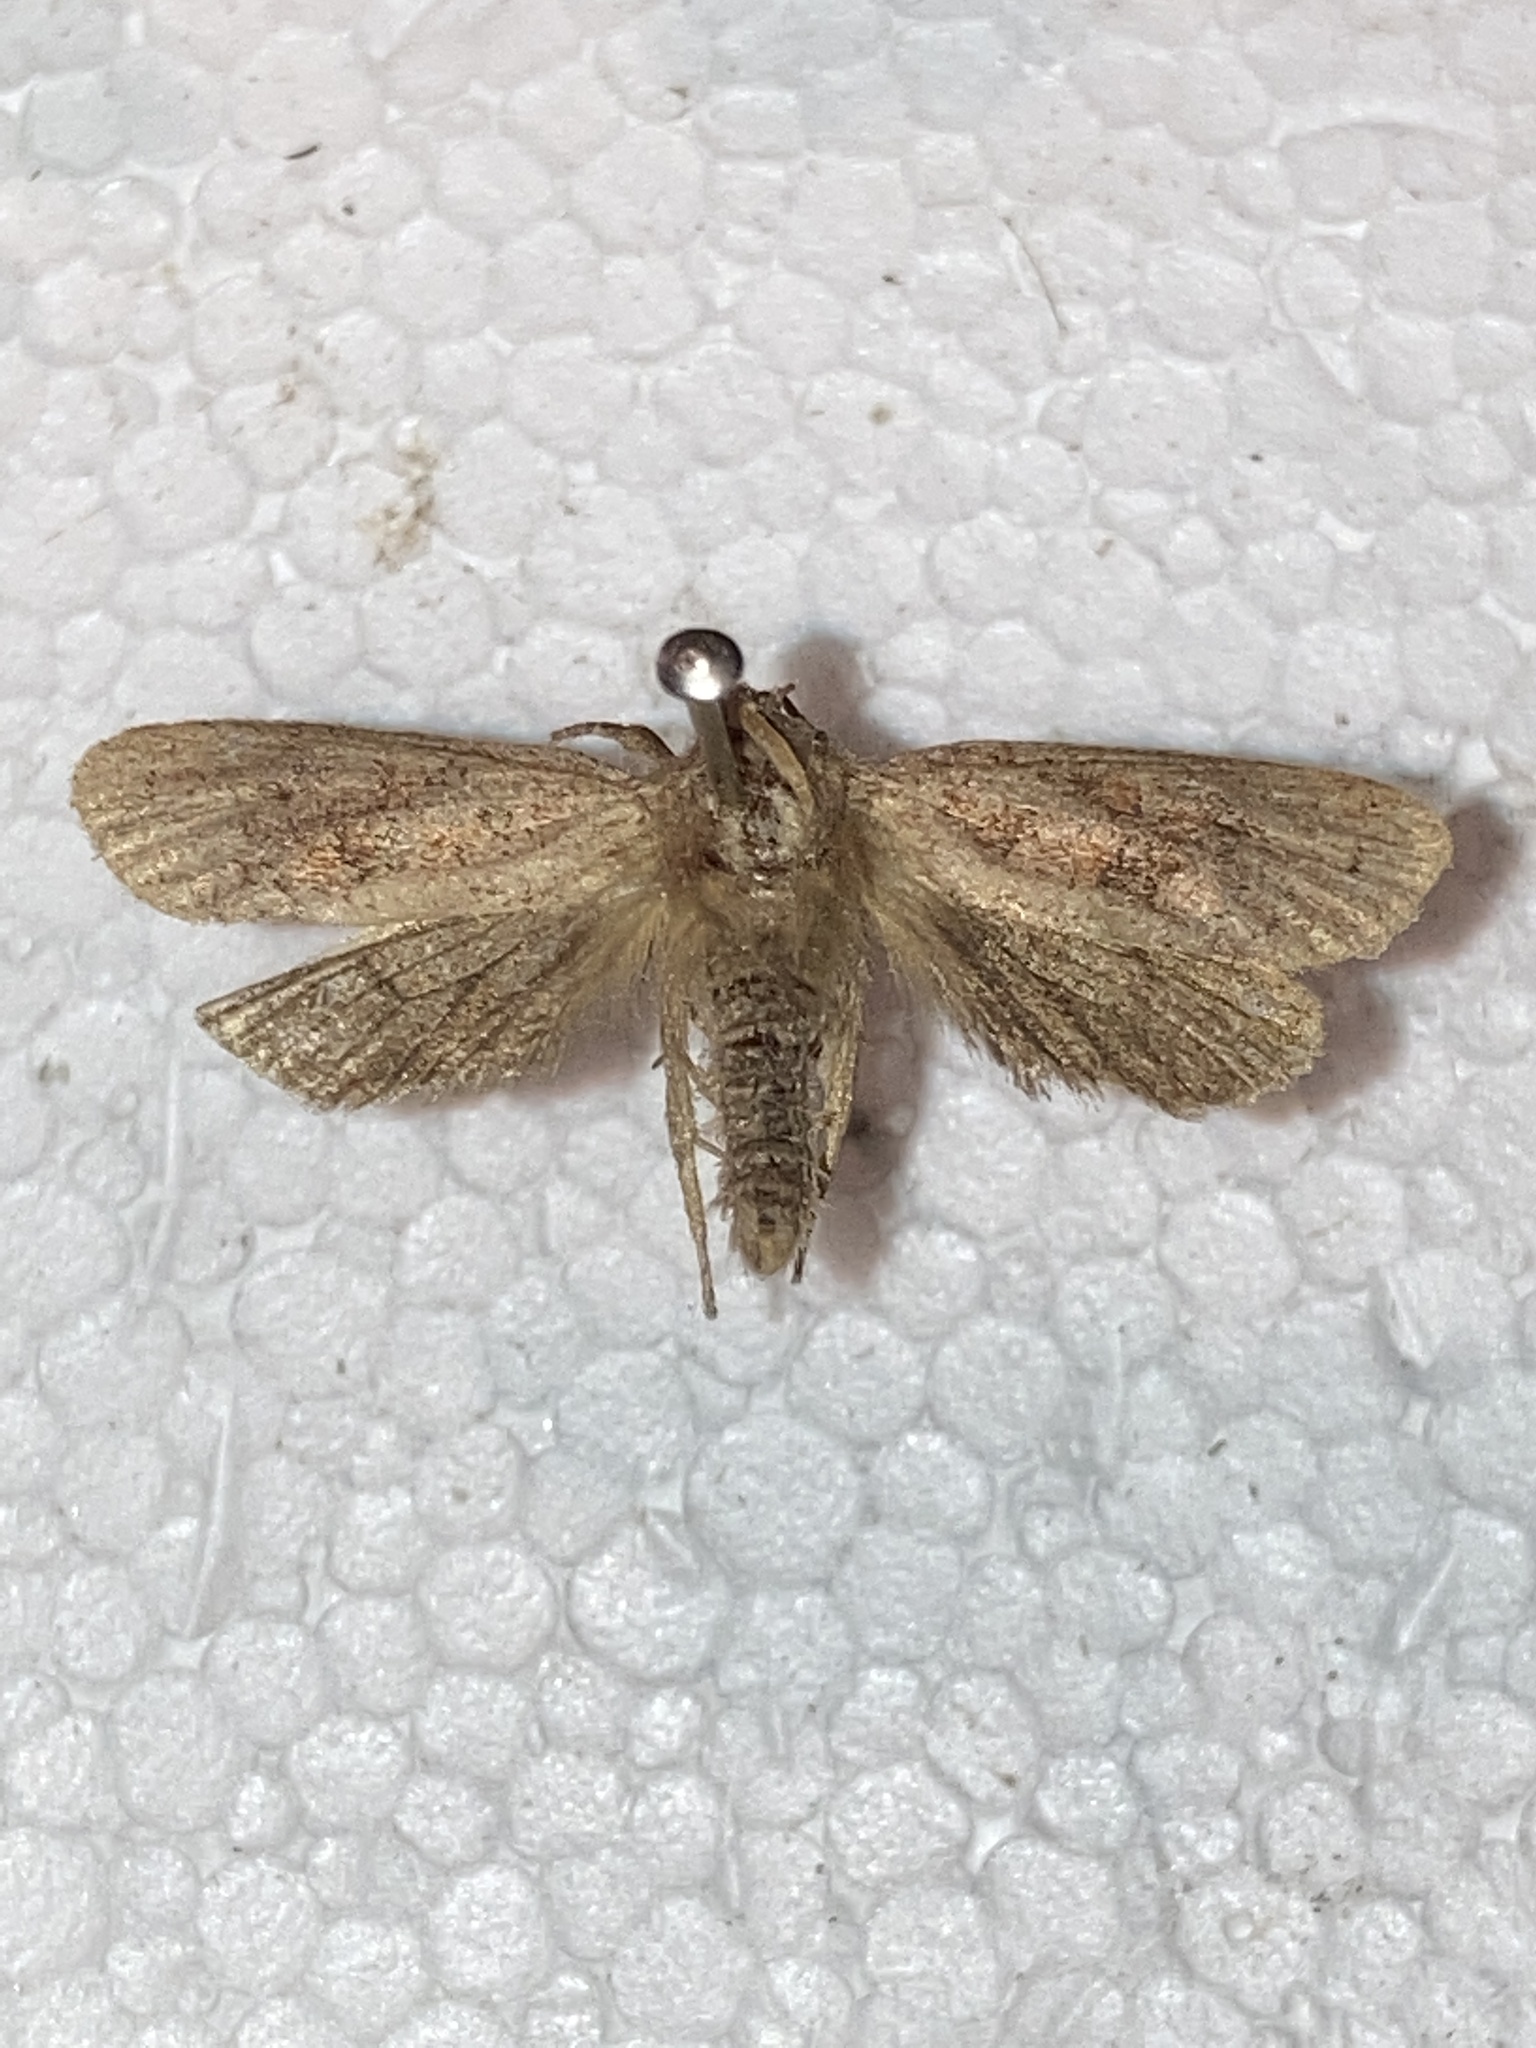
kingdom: Animalia
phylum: Arthropoda
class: Insecta
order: Lepidoptera
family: Tineidae
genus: Acrolophus
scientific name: Acrolophus plumifrontella
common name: Eastern grass tubeworm moth
